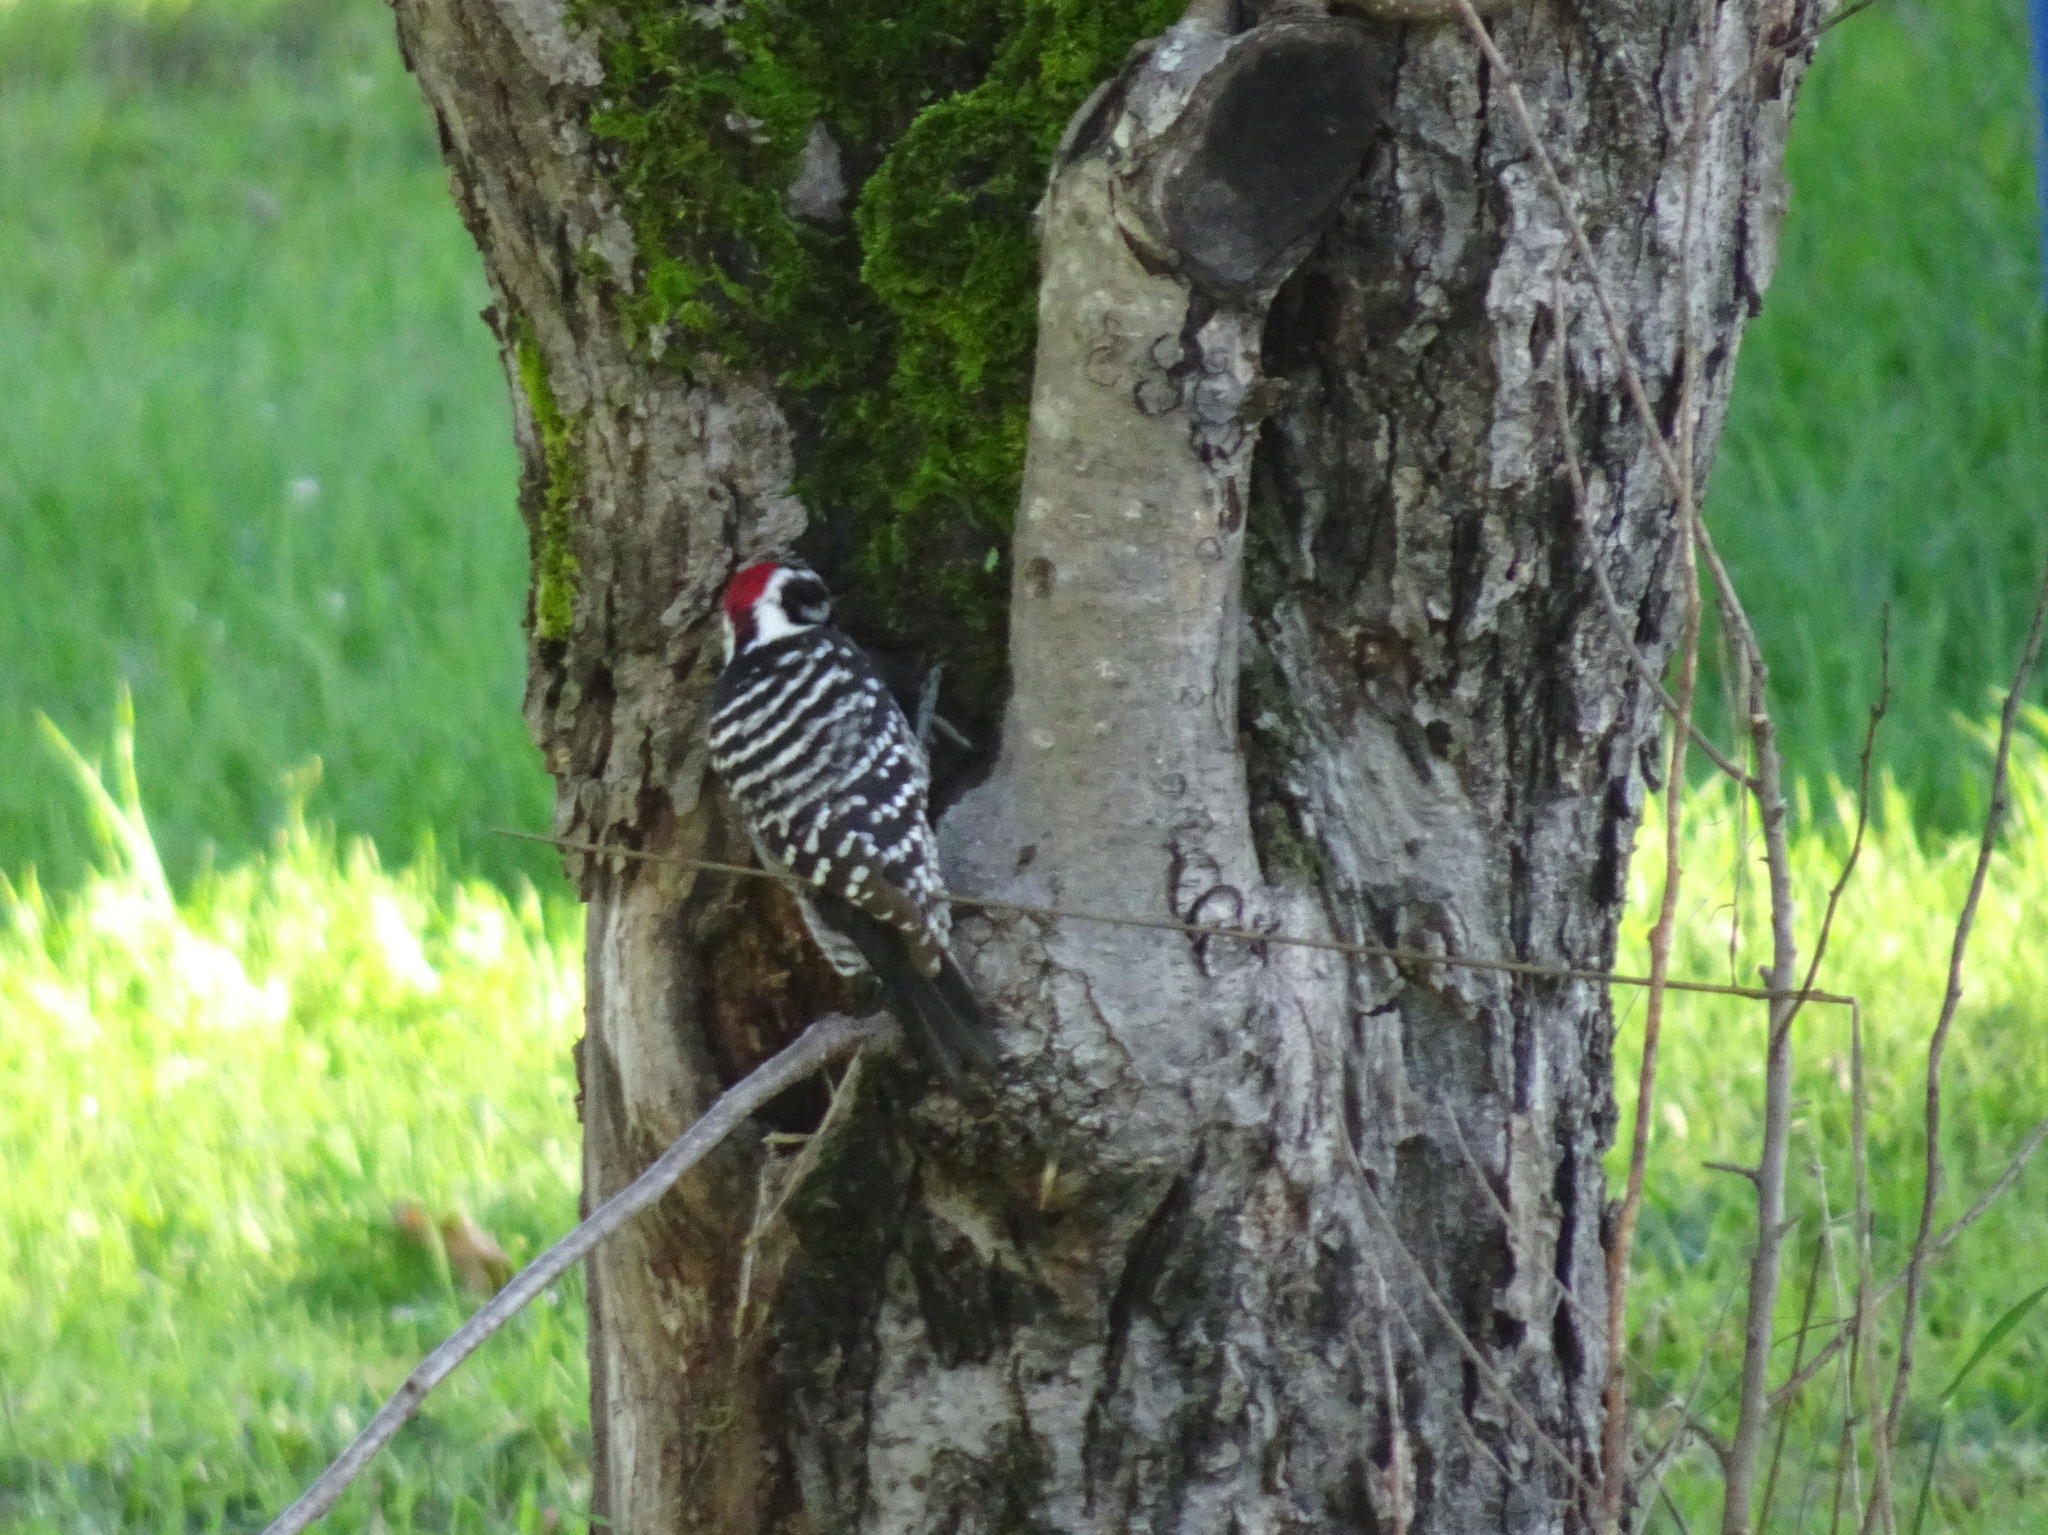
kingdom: Animalia
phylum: Chordata
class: Aves
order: Piciformes
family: Picidae
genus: Dryobates
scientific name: Dryobates nuttallii
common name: Nuttall's woodpecker
